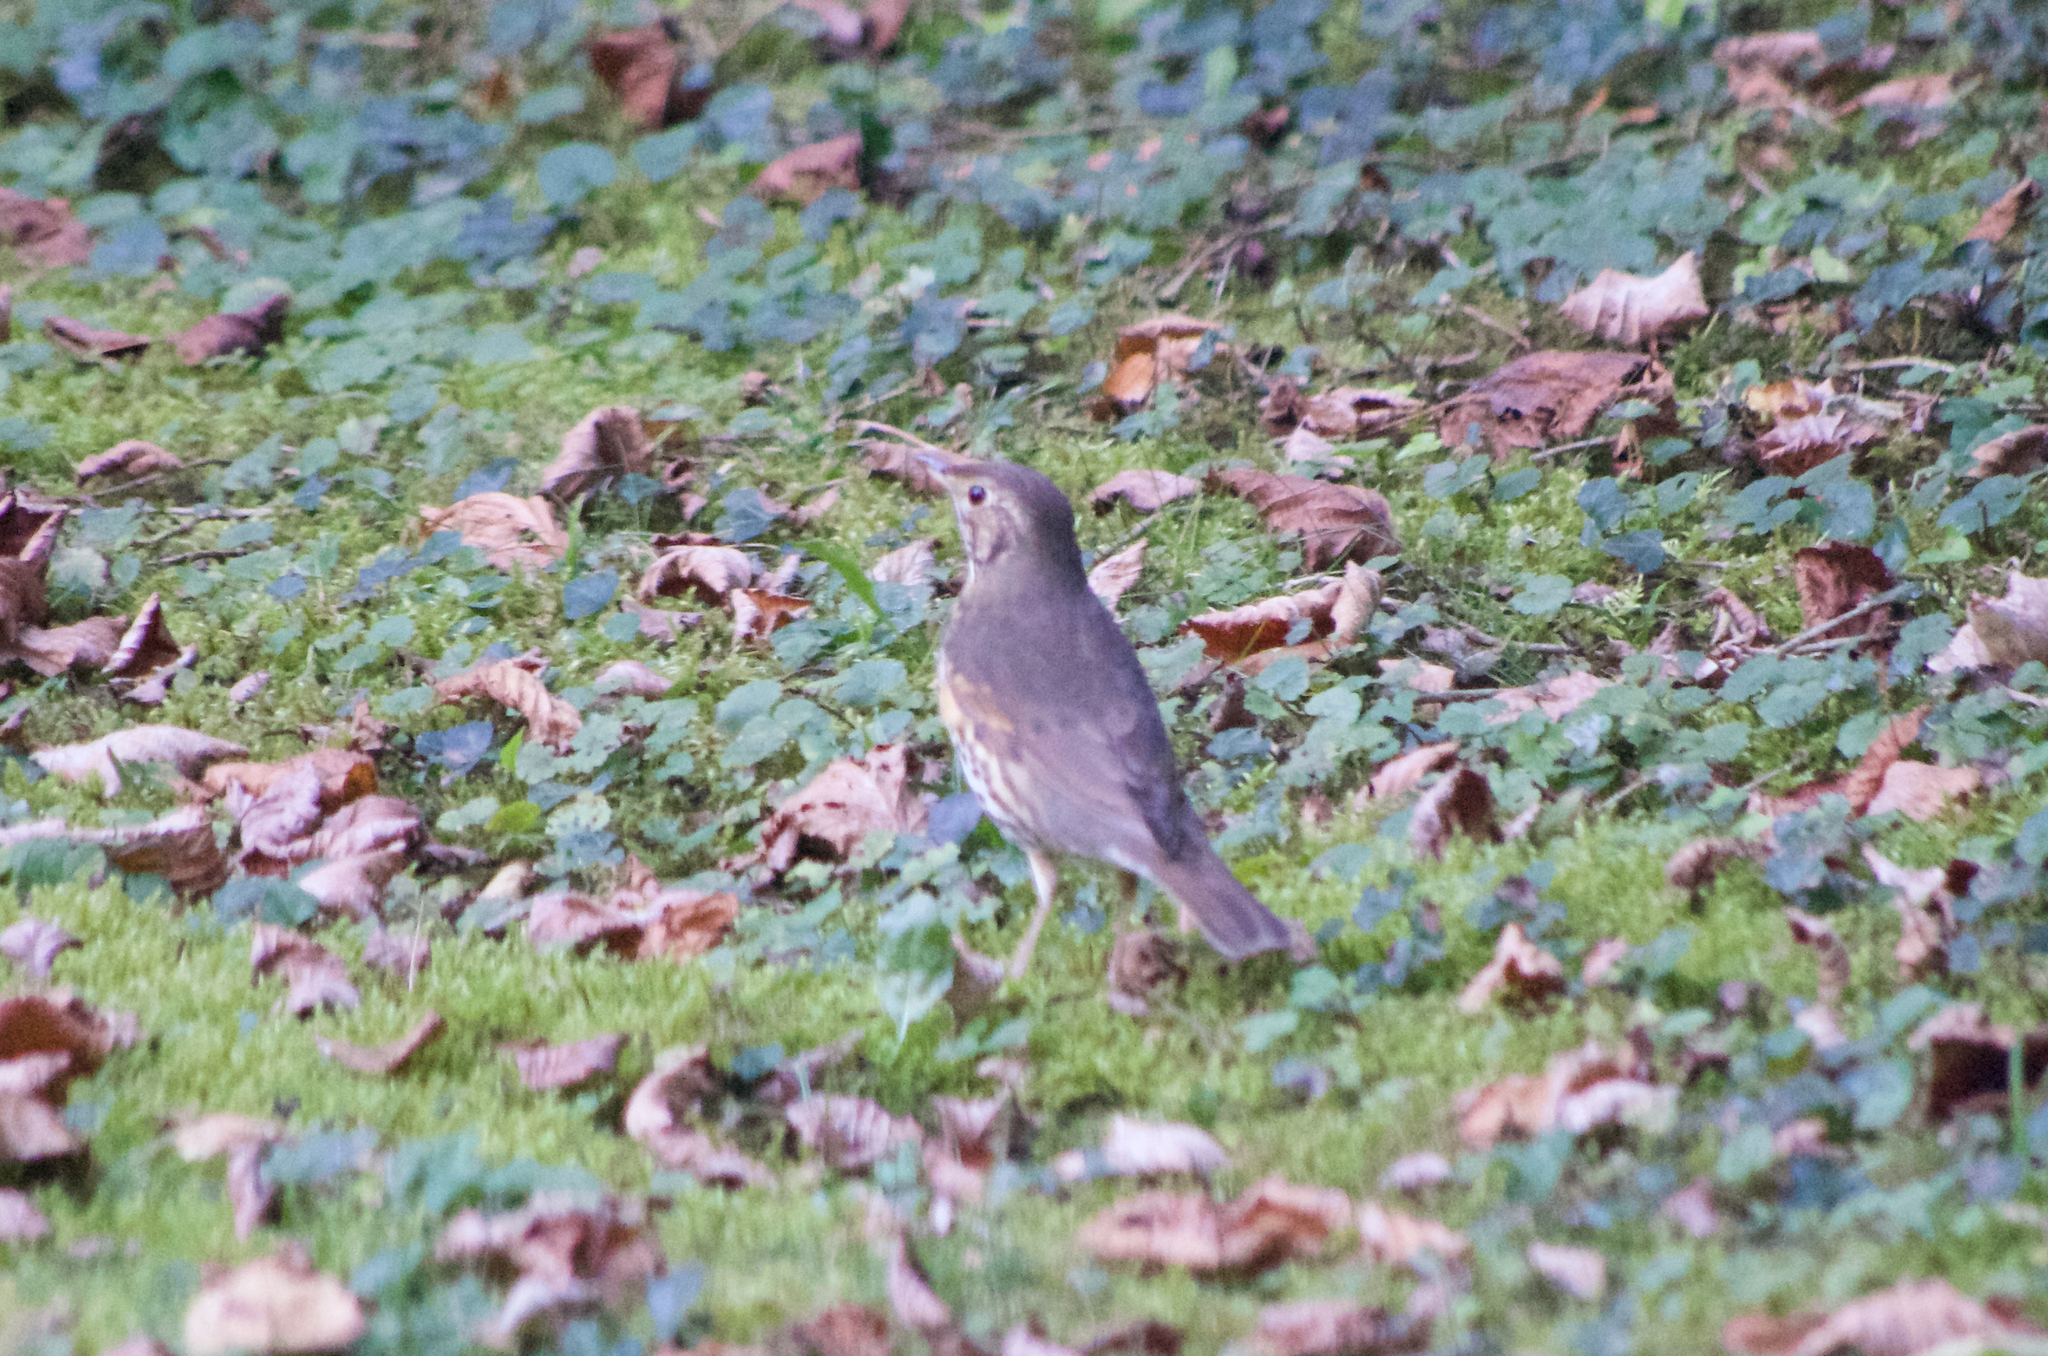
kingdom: Animalia
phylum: Chordata
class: Aves
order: Passeriformes
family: Turdidae
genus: Turdus
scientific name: Turdus philomelos
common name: Song thrush
